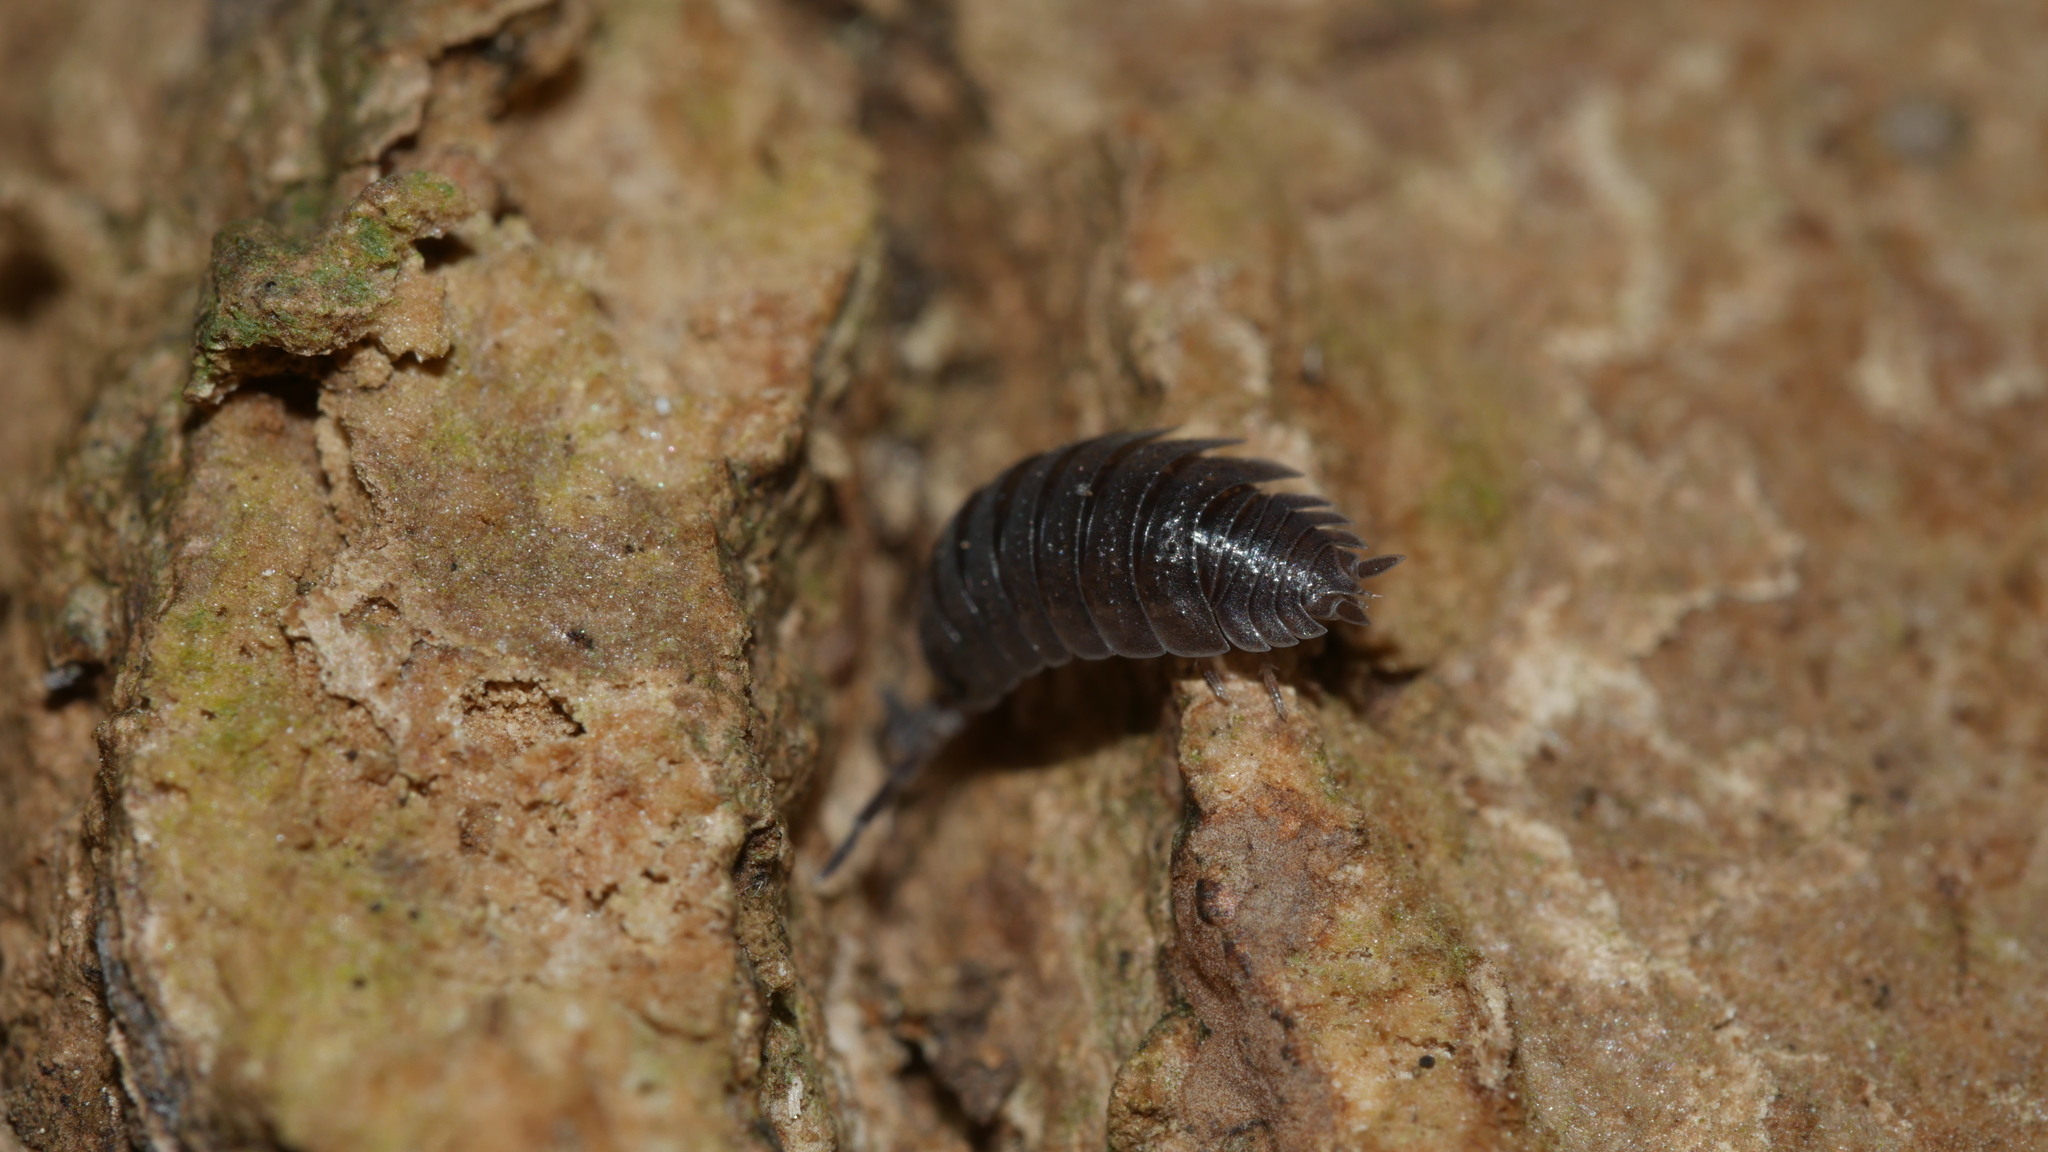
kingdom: Animalia
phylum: Arthropoda
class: Malacostraca
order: Isopoda
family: Porcellionidae
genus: Porcellio
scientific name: Porcellio scaber
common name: Common rough woodlouse
